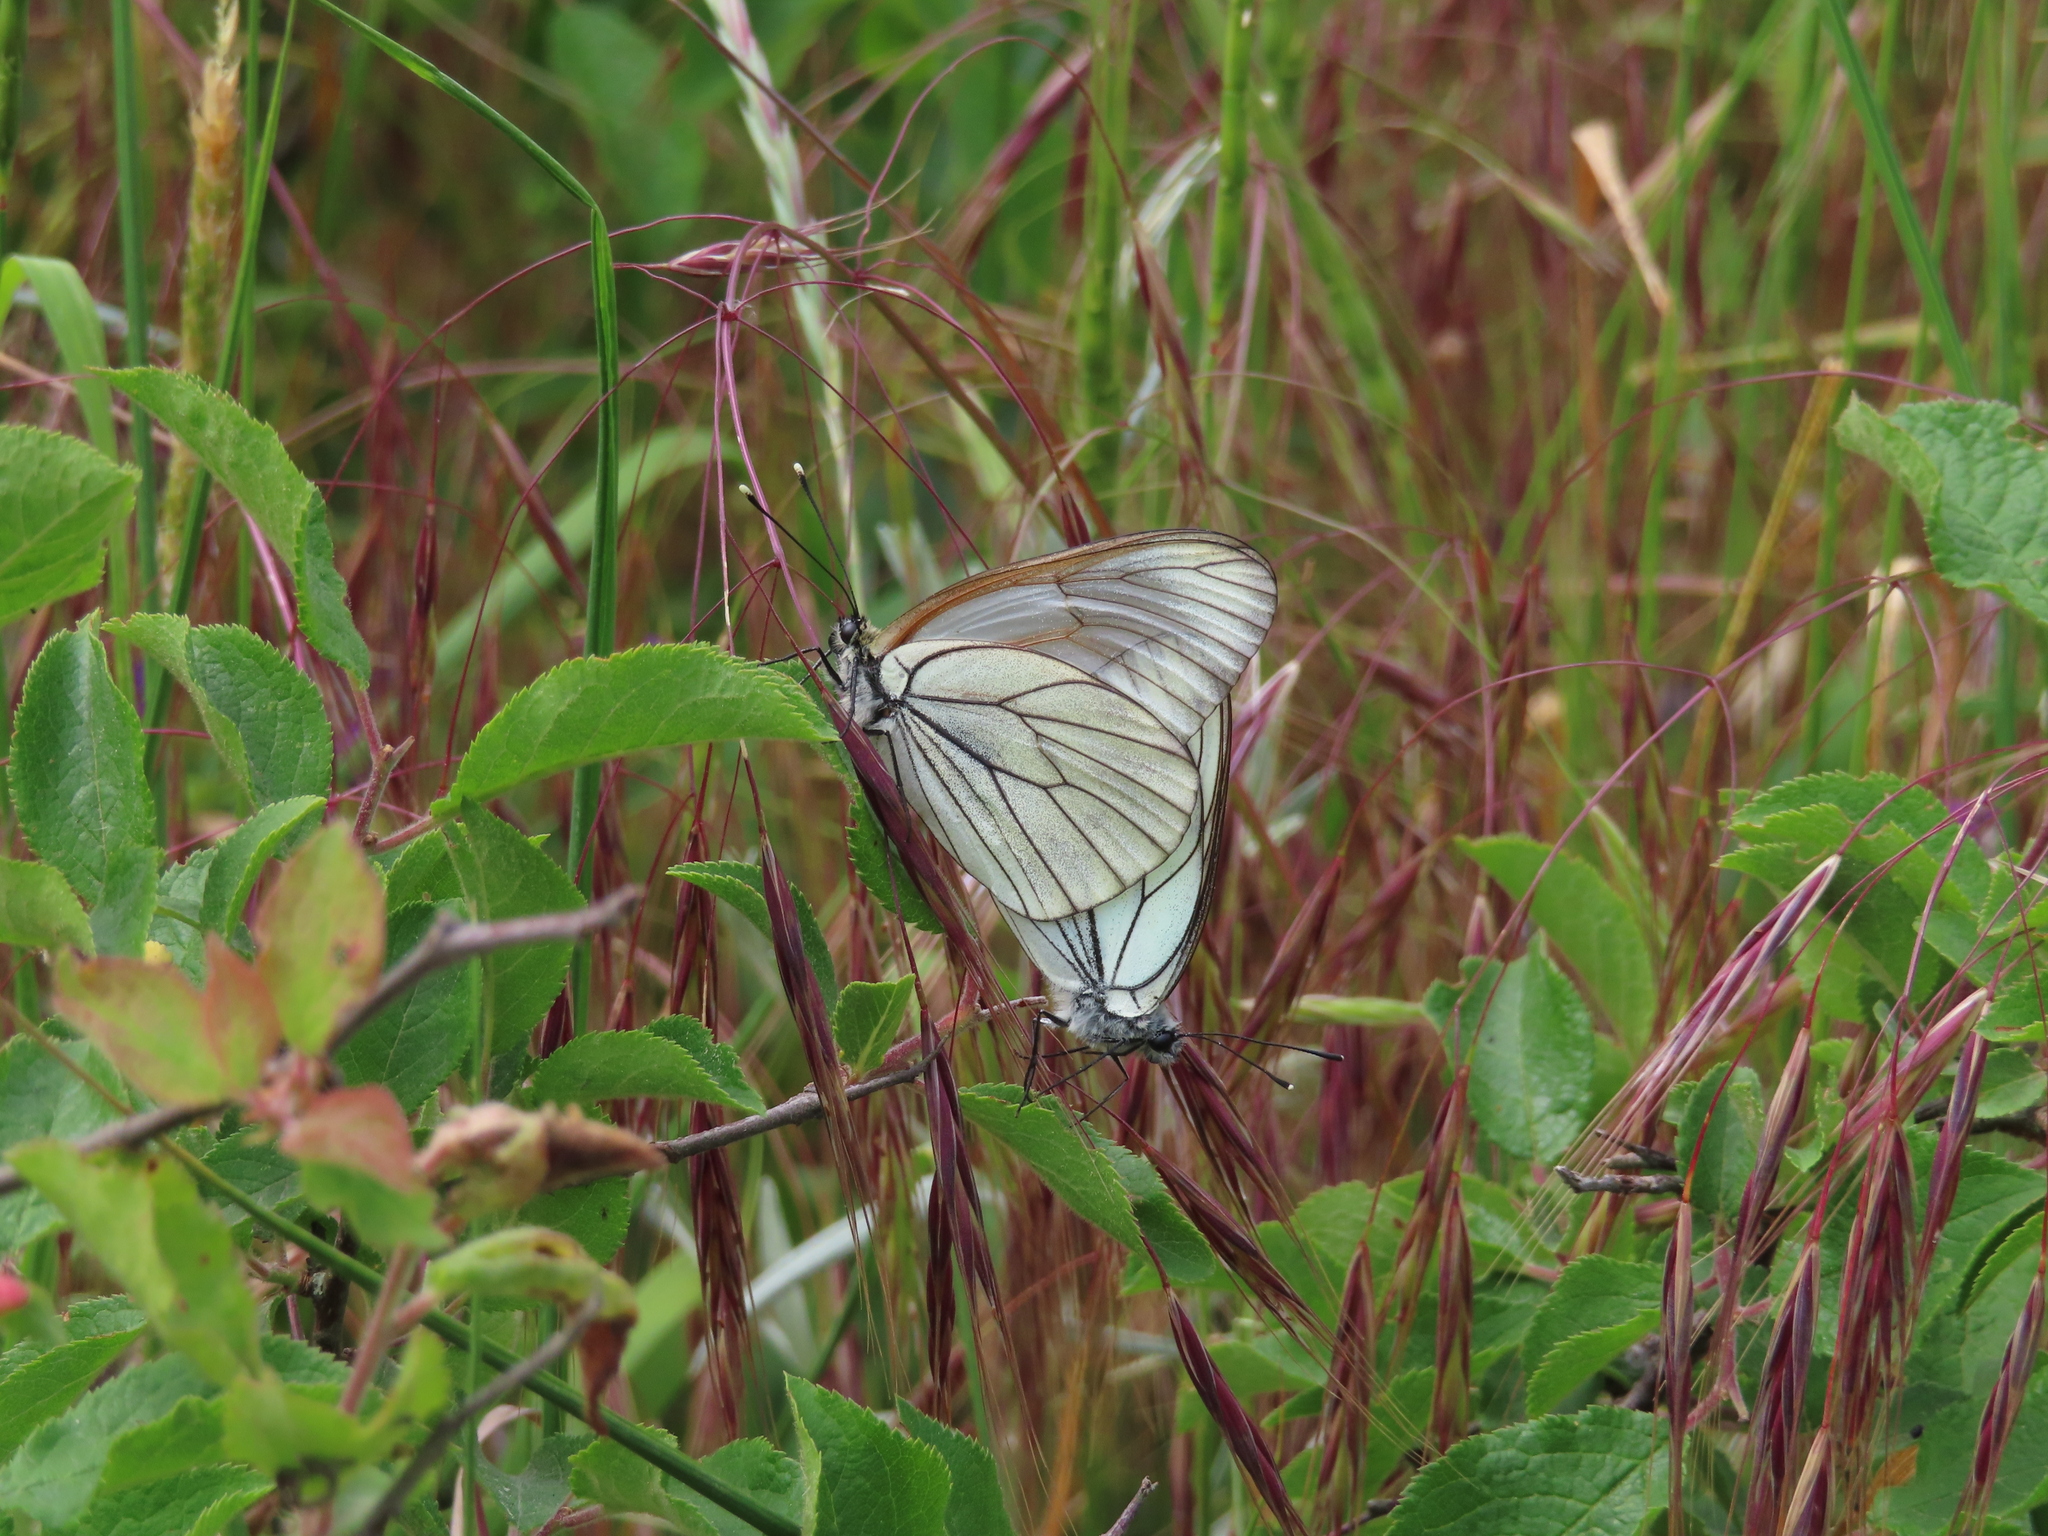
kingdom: Animalia
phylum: Arthropoda
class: Insecta
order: Lepidoptera
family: Pieridae
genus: Aporia
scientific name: Aporia crataegi
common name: Black-veined white
